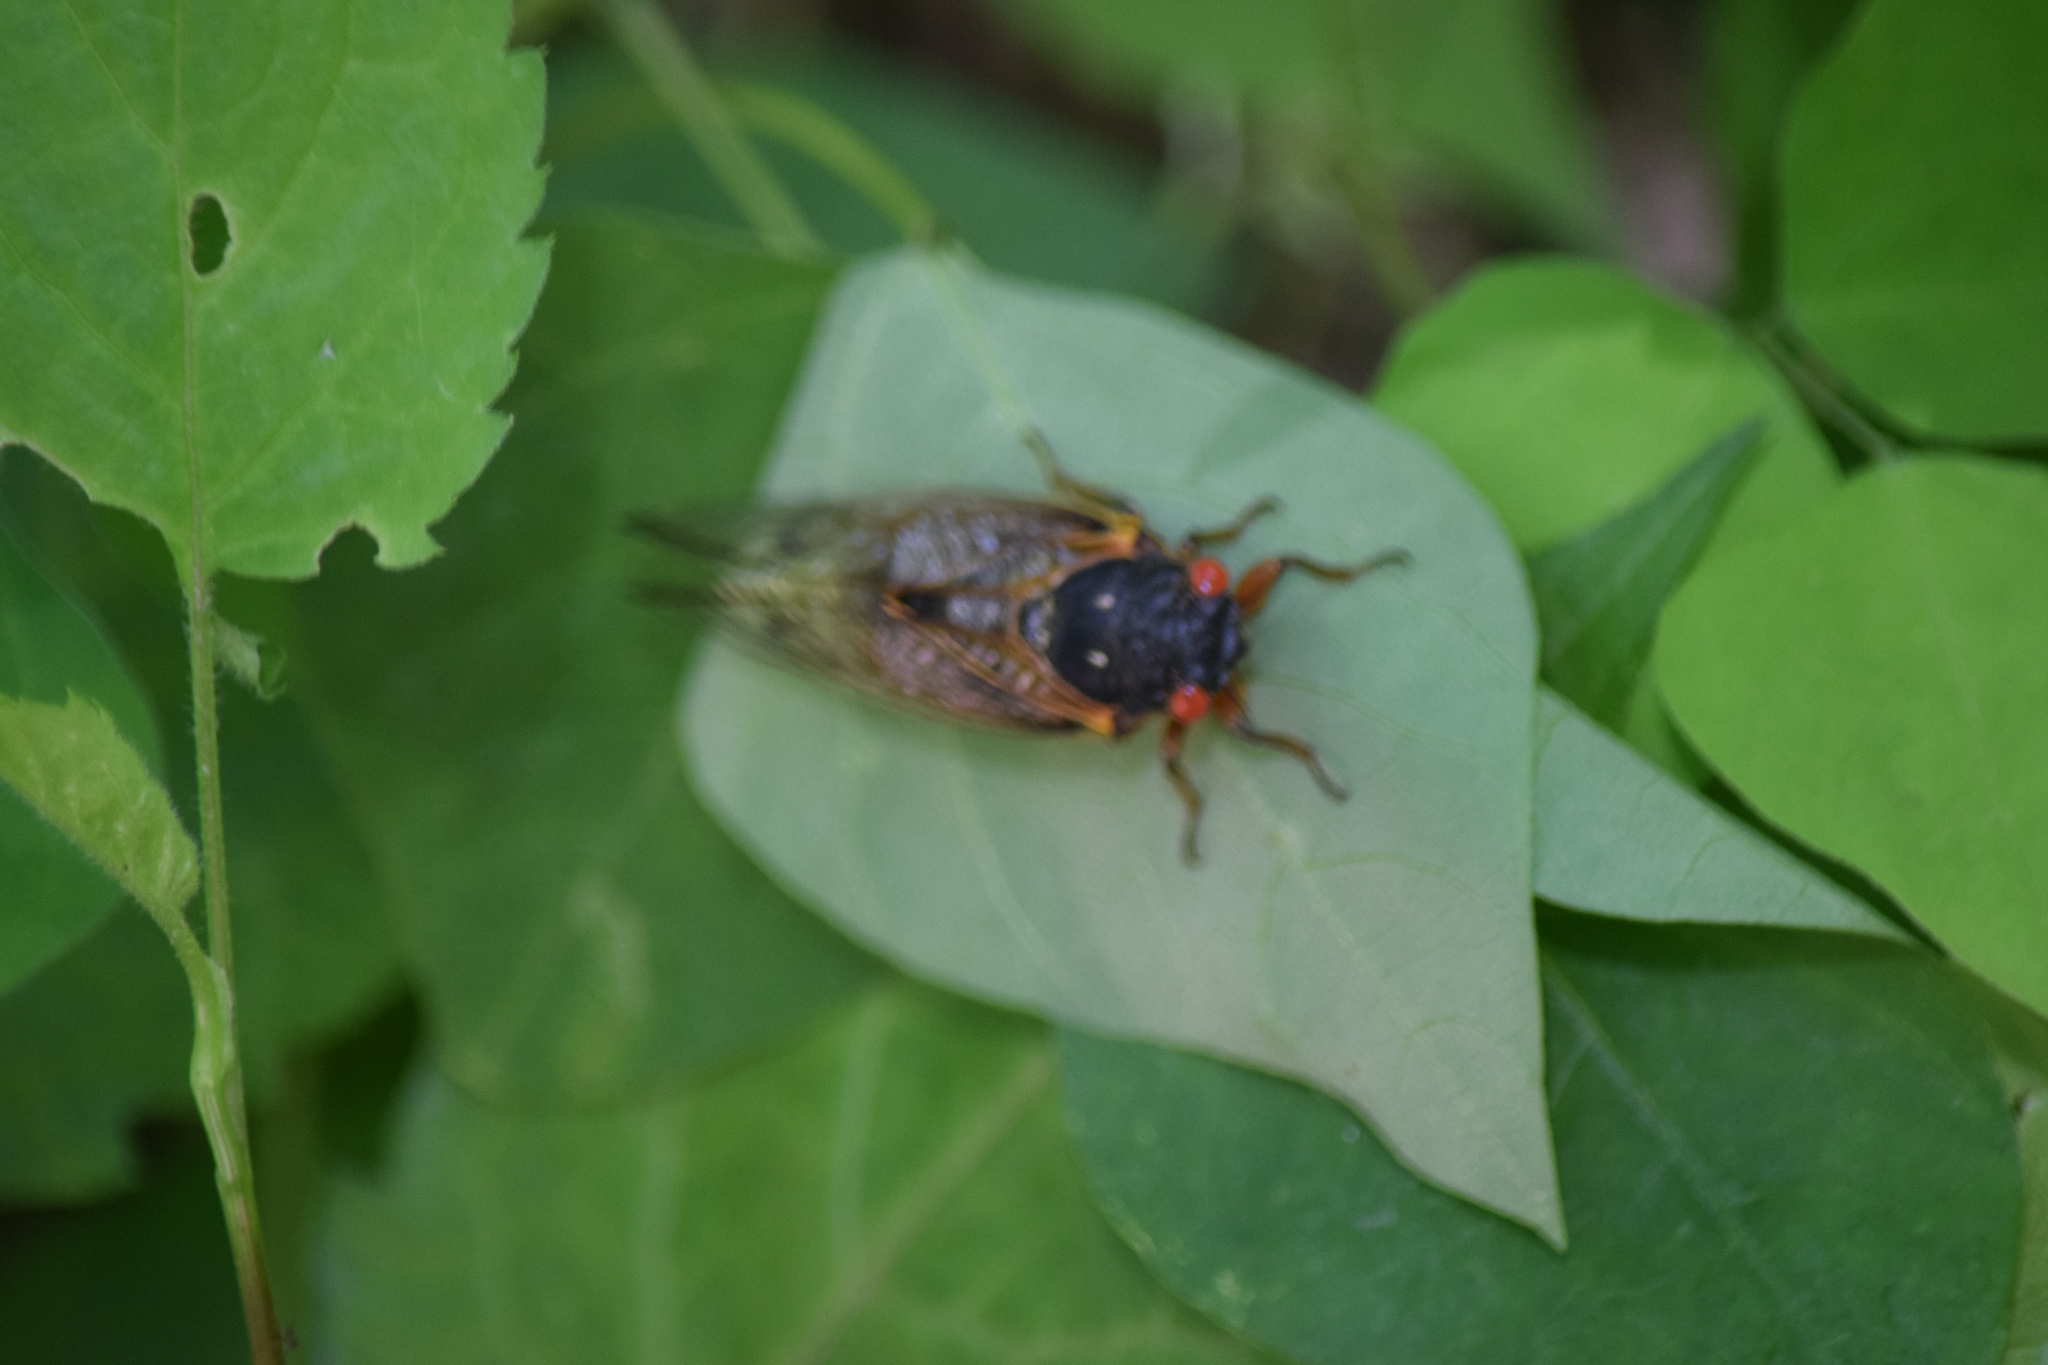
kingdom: Animalia
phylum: Arthropoda
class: Insecta
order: Hemiptera
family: Cicadidae
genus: Magicicada
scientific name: Magicicada
